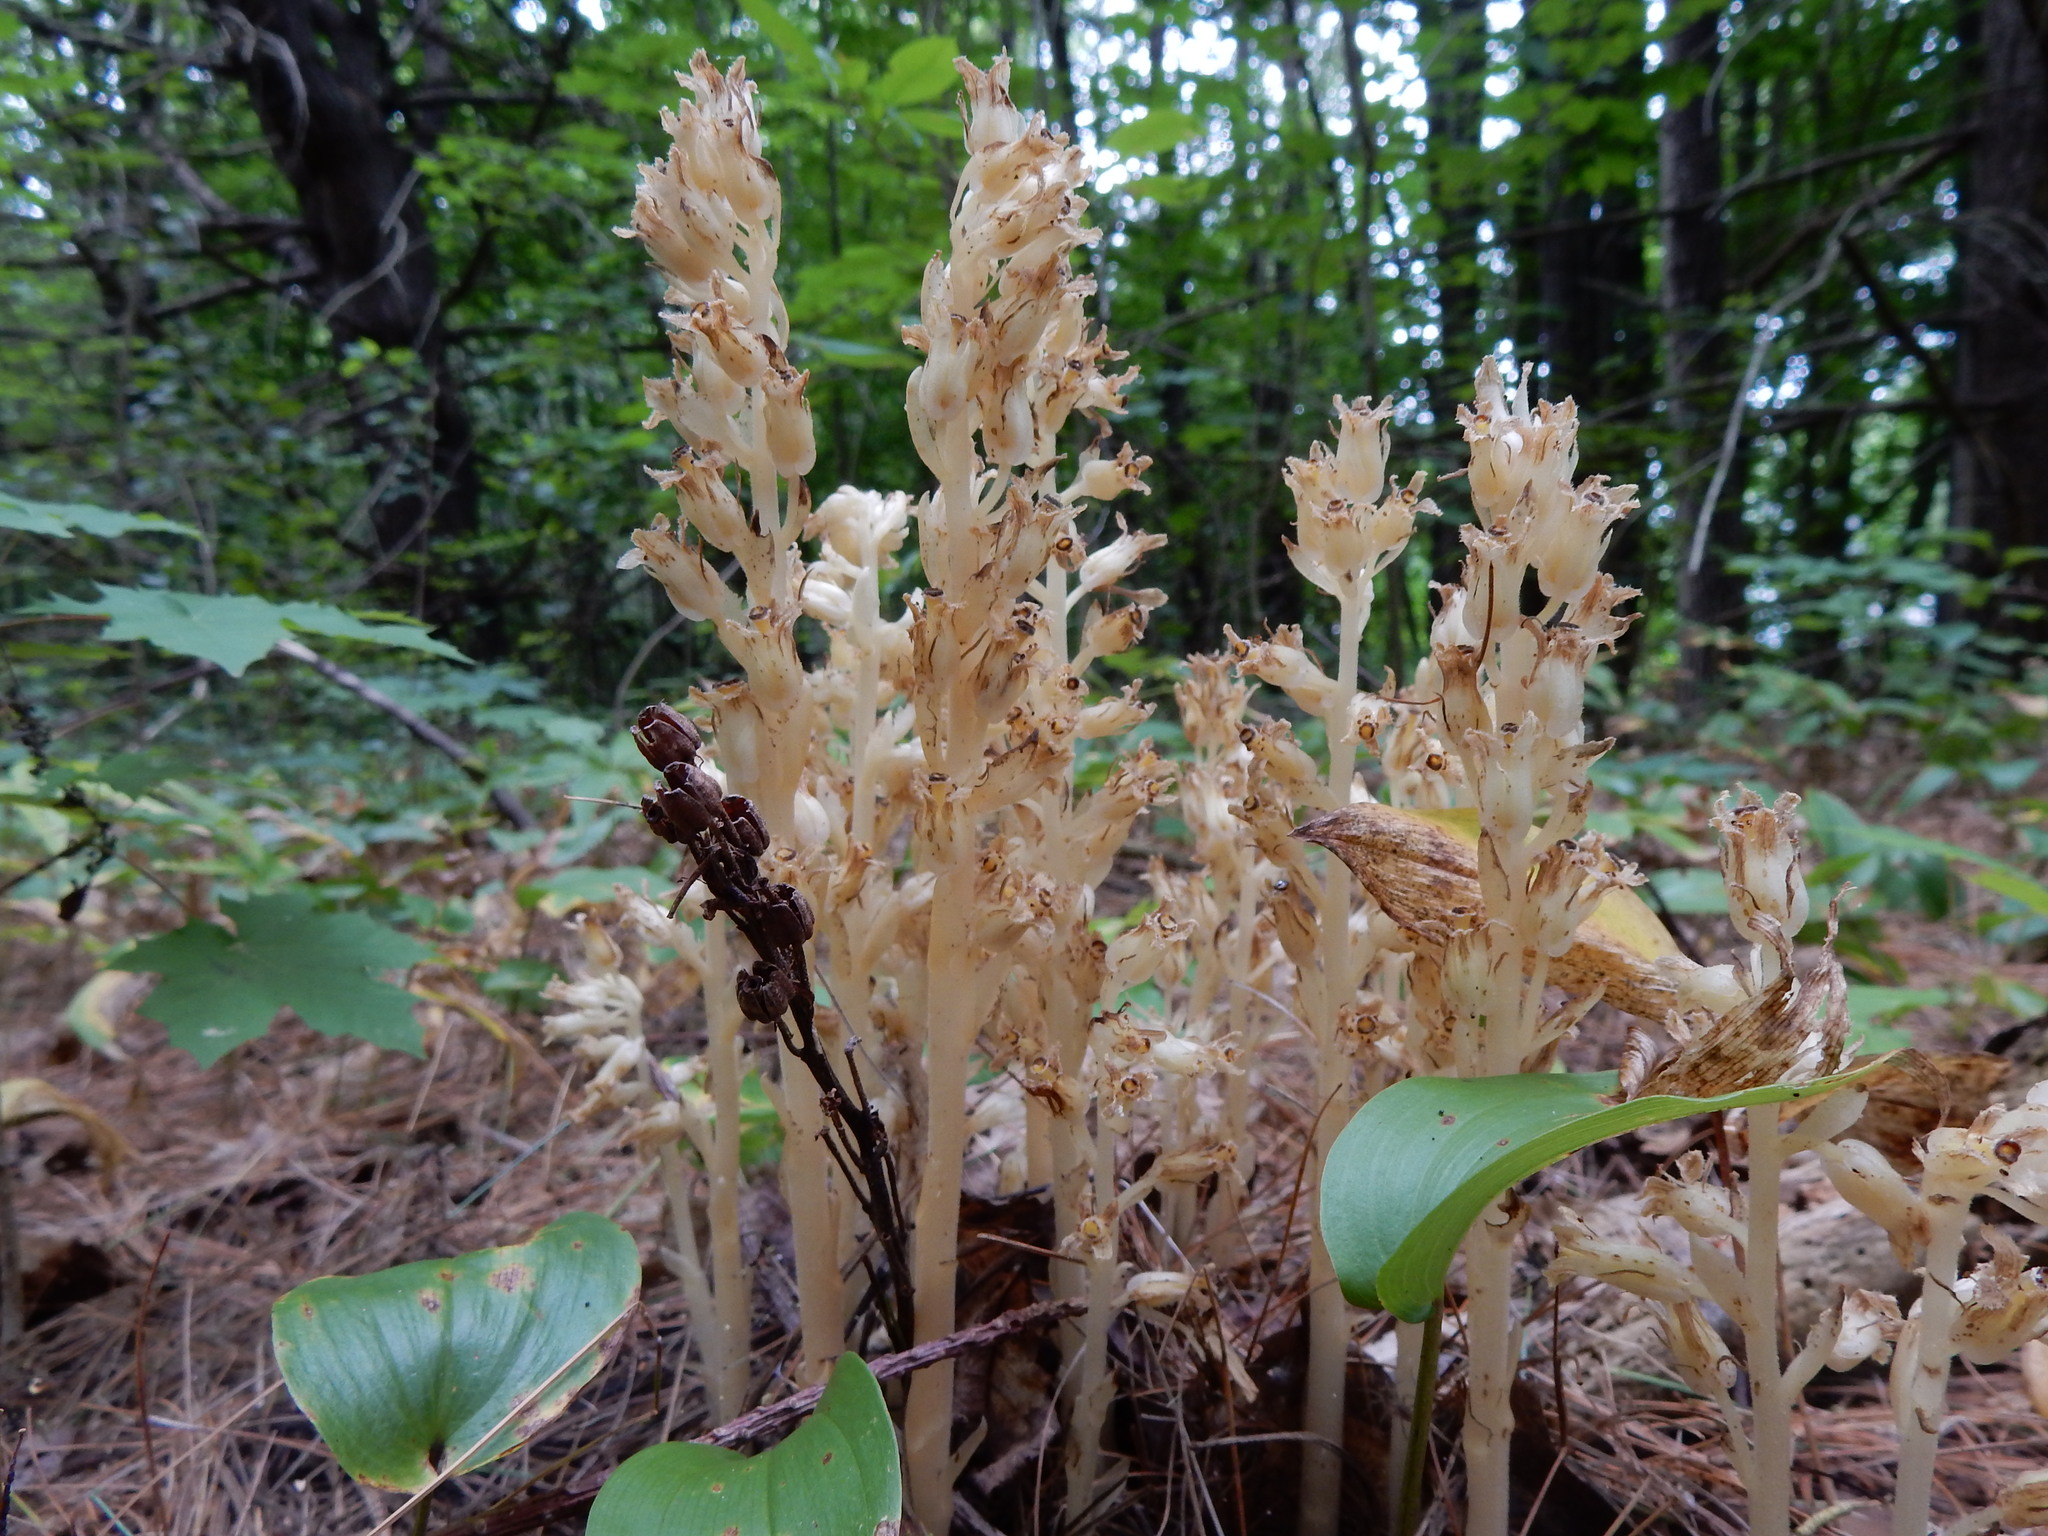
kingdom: Plantae
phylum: Tracheophyta
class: Magnoliopsida
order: Ericales
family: Ericaceae
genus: Hypopitys
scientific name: Hypopitys monotropa
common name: Yellow bird's-nest
